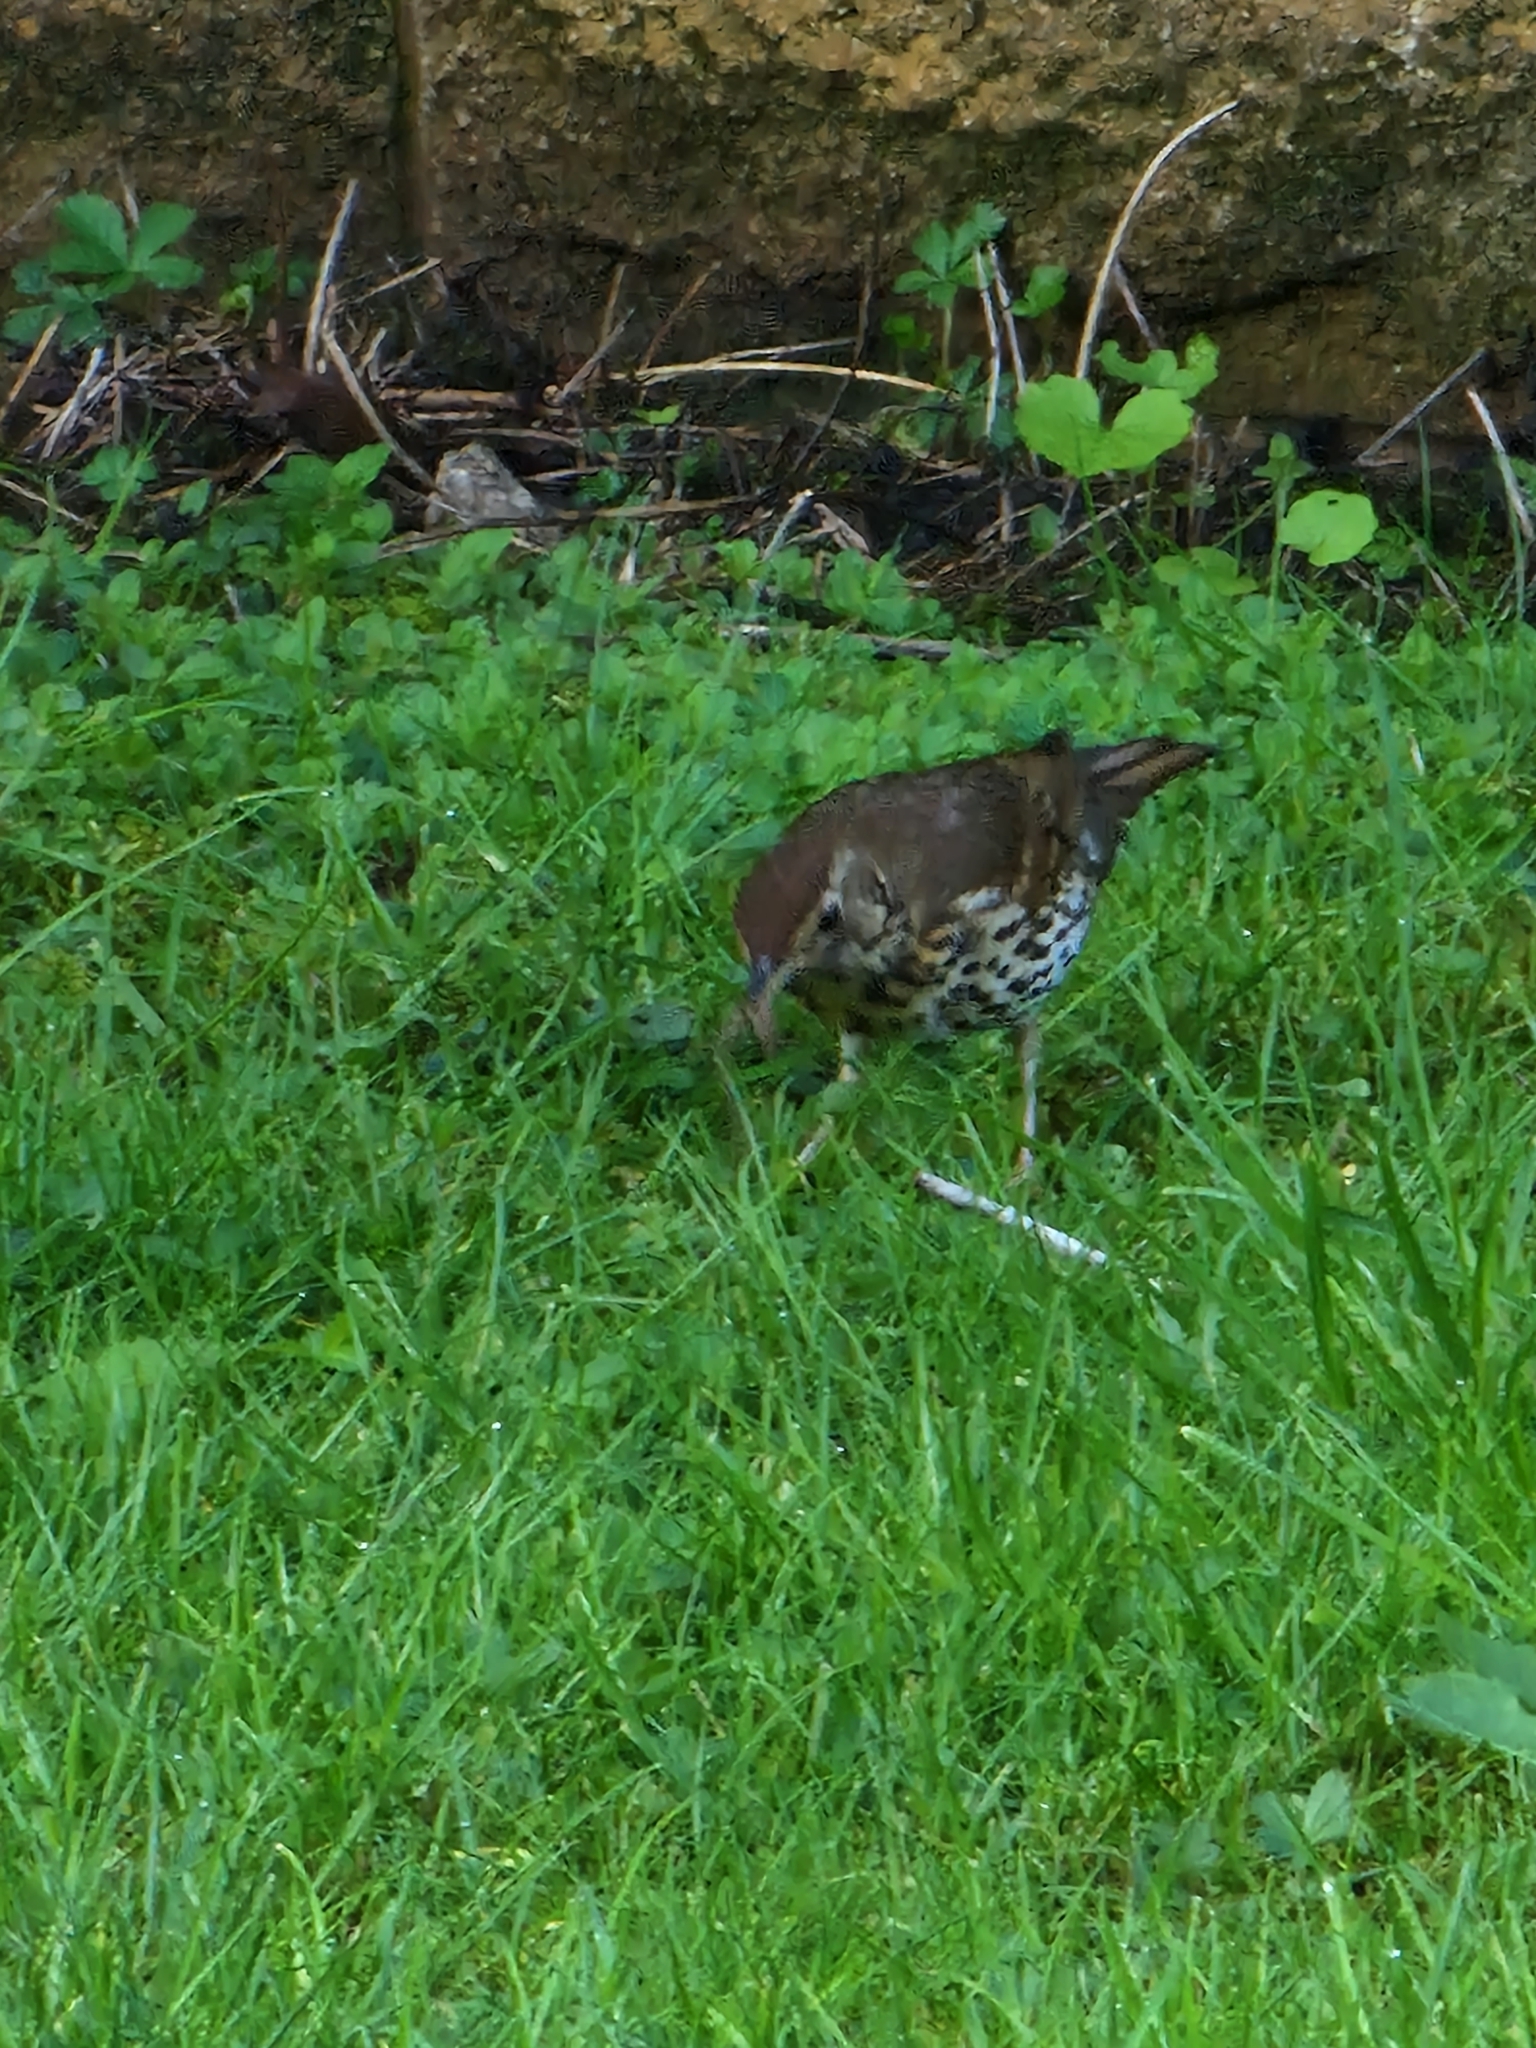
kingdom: Animalia
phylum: Chordata
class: Aves
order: Passeriformes
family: Turdidae
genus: Turdus
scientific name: Turdus philomelos
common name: Song thrush
